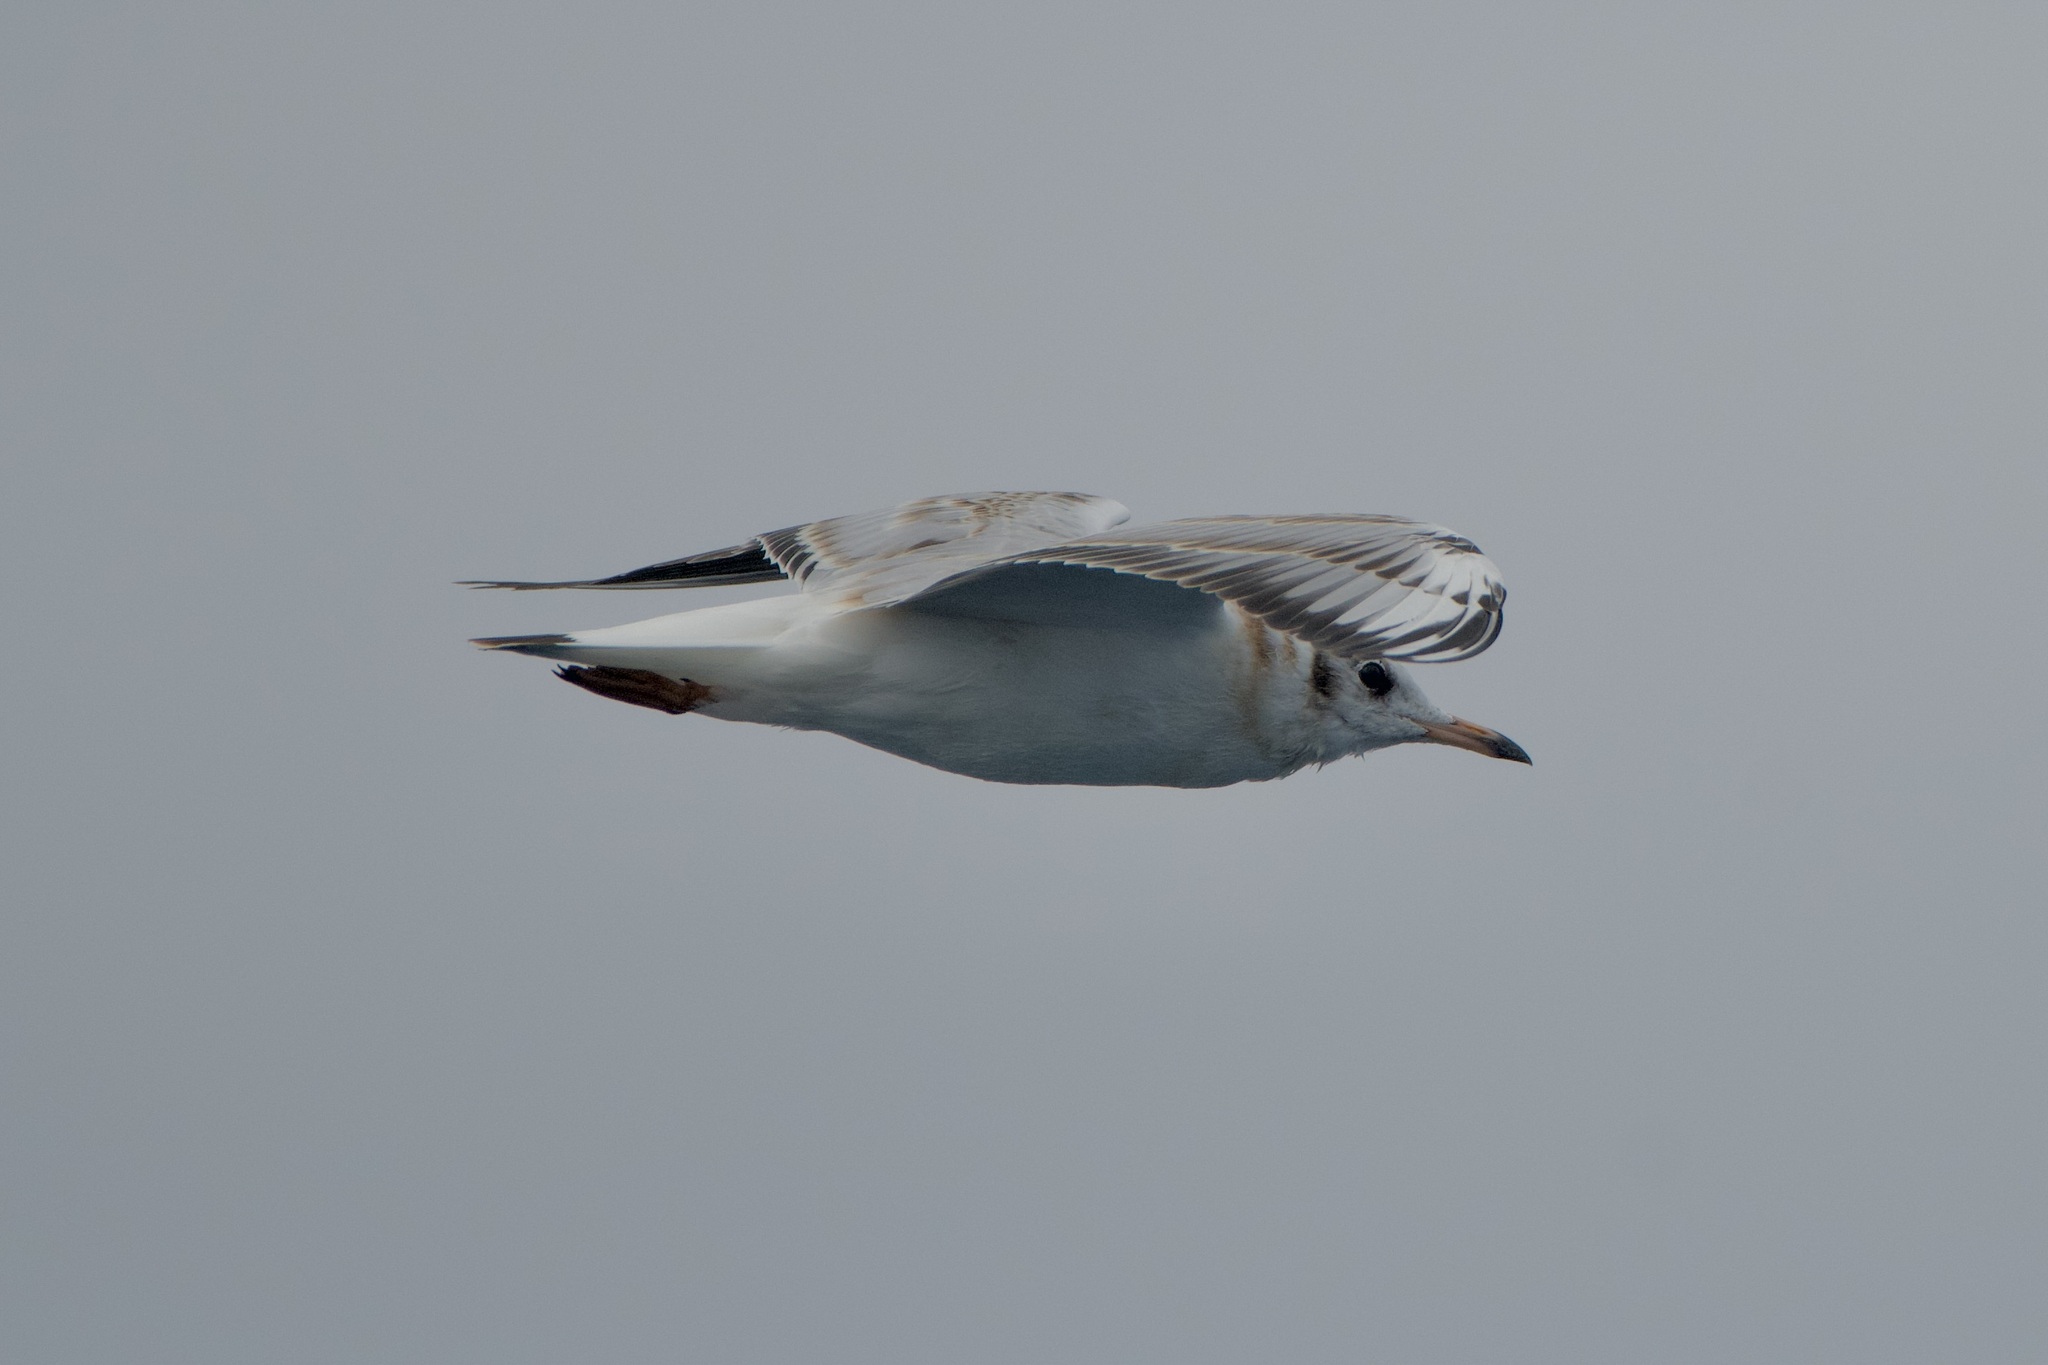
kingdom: Animalia
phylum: Chordata
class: Aves
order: Charadriiformes
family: Laridae
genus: Chroicocephalus
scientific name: Chroicocephalus ridibundus
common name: Black-headed gull
